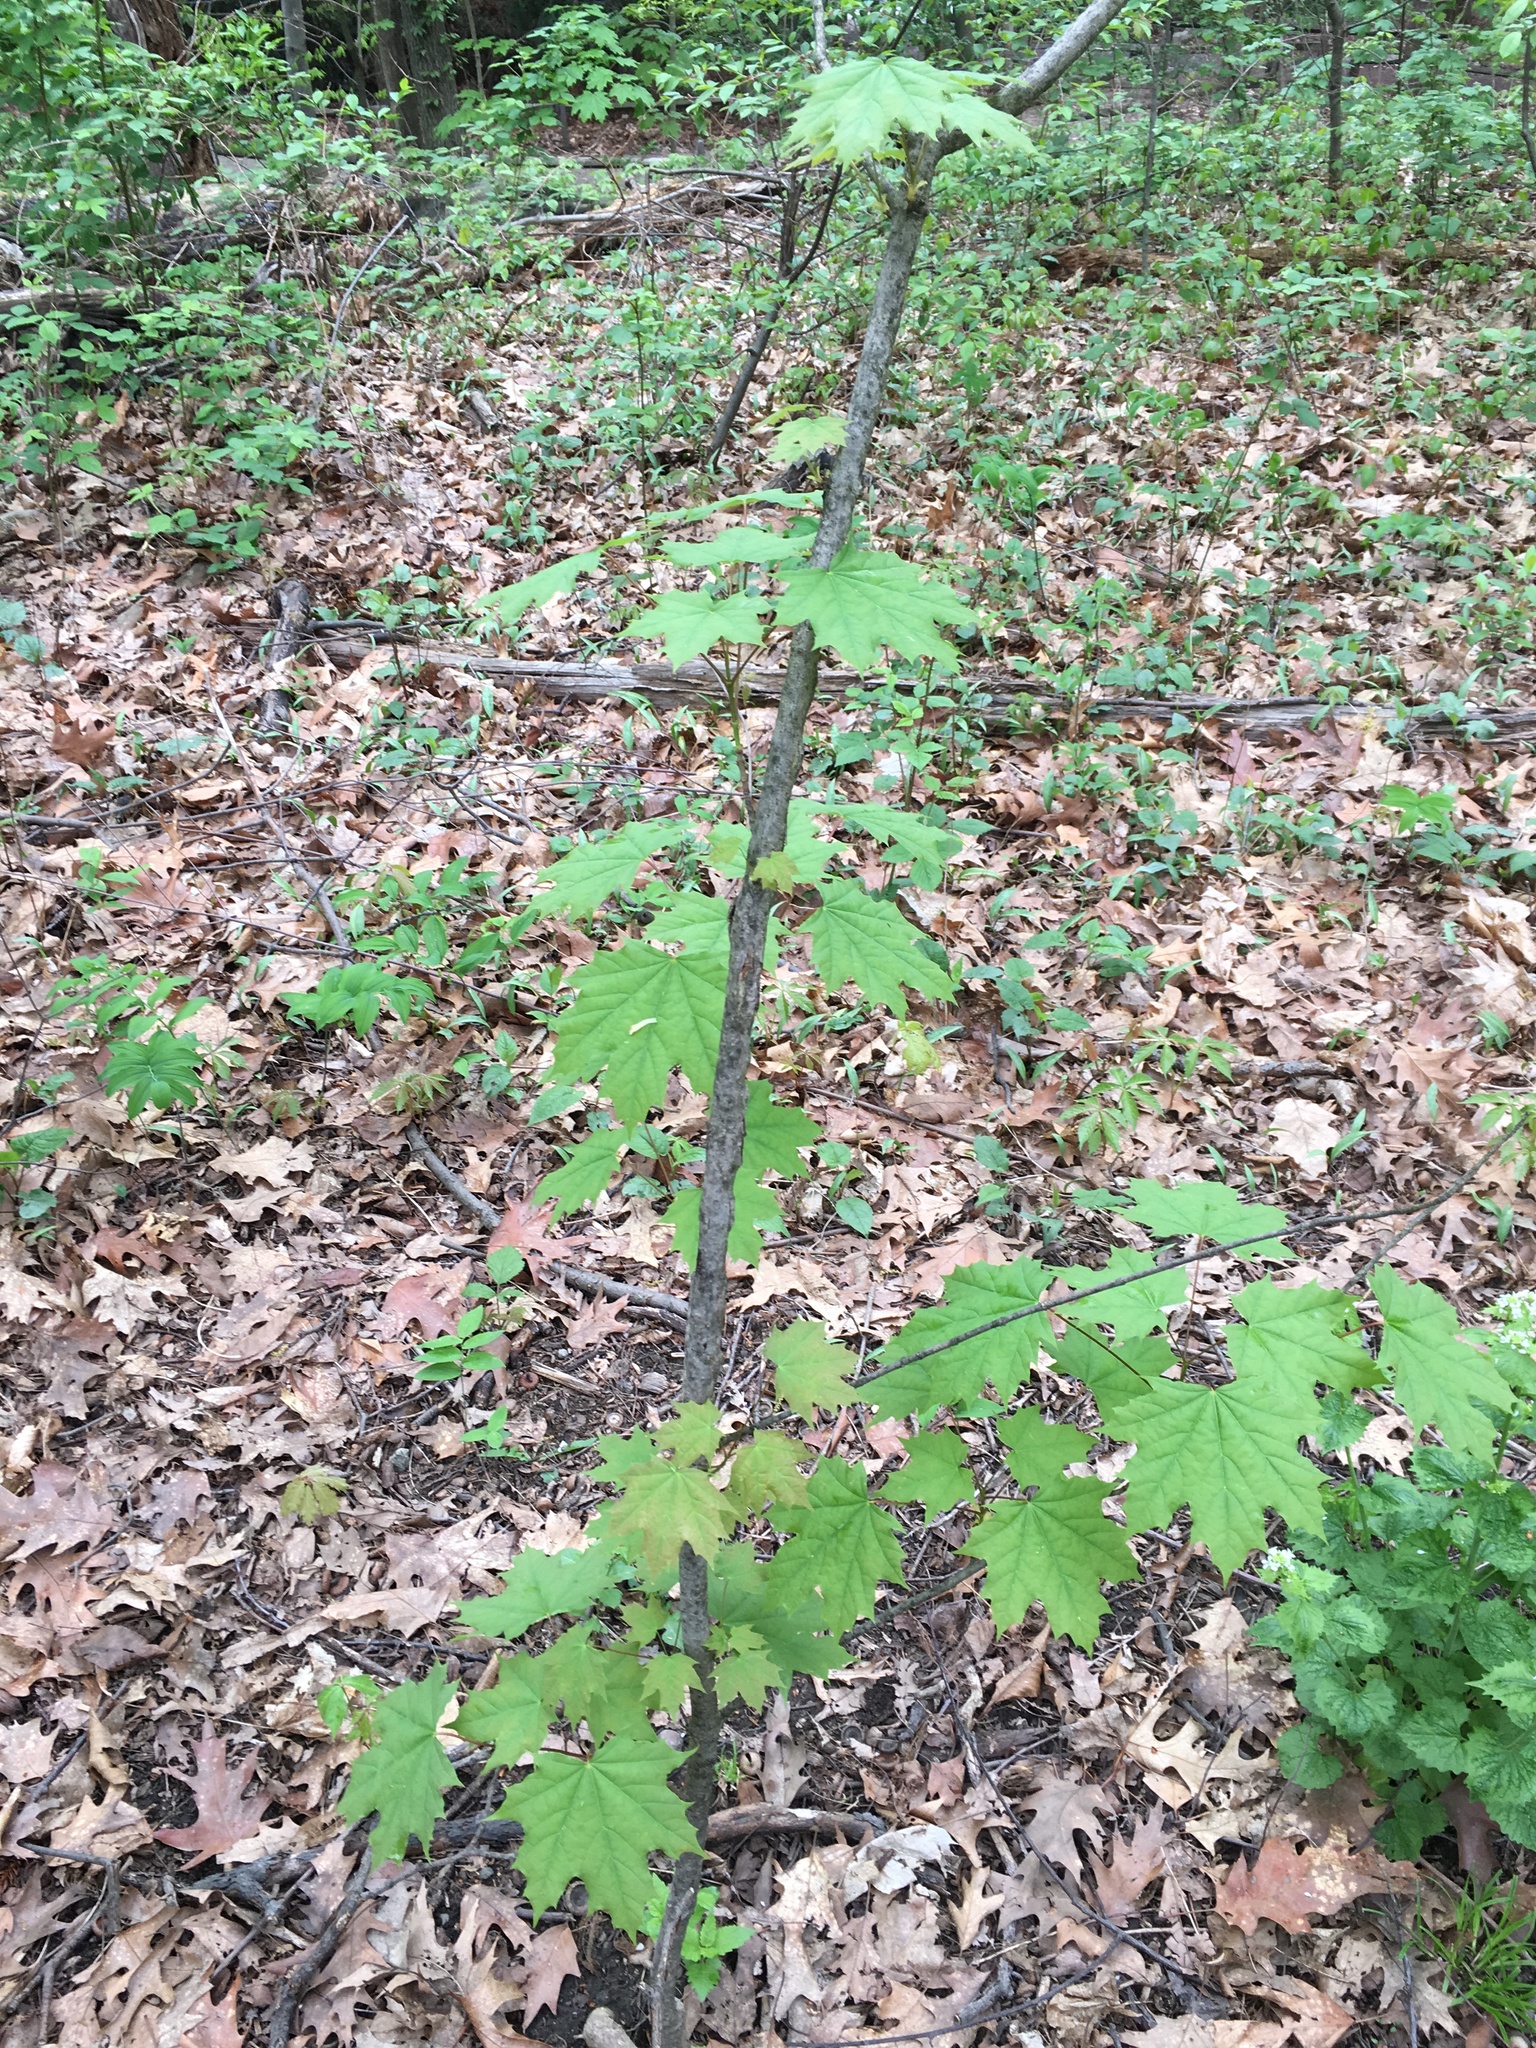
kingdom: Plantae
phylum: Tracheophyta
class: Magnoliopsida
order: Sapindales
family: Sapindaceae
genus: Acer
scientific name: Acer platanoides
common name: Norway maple
